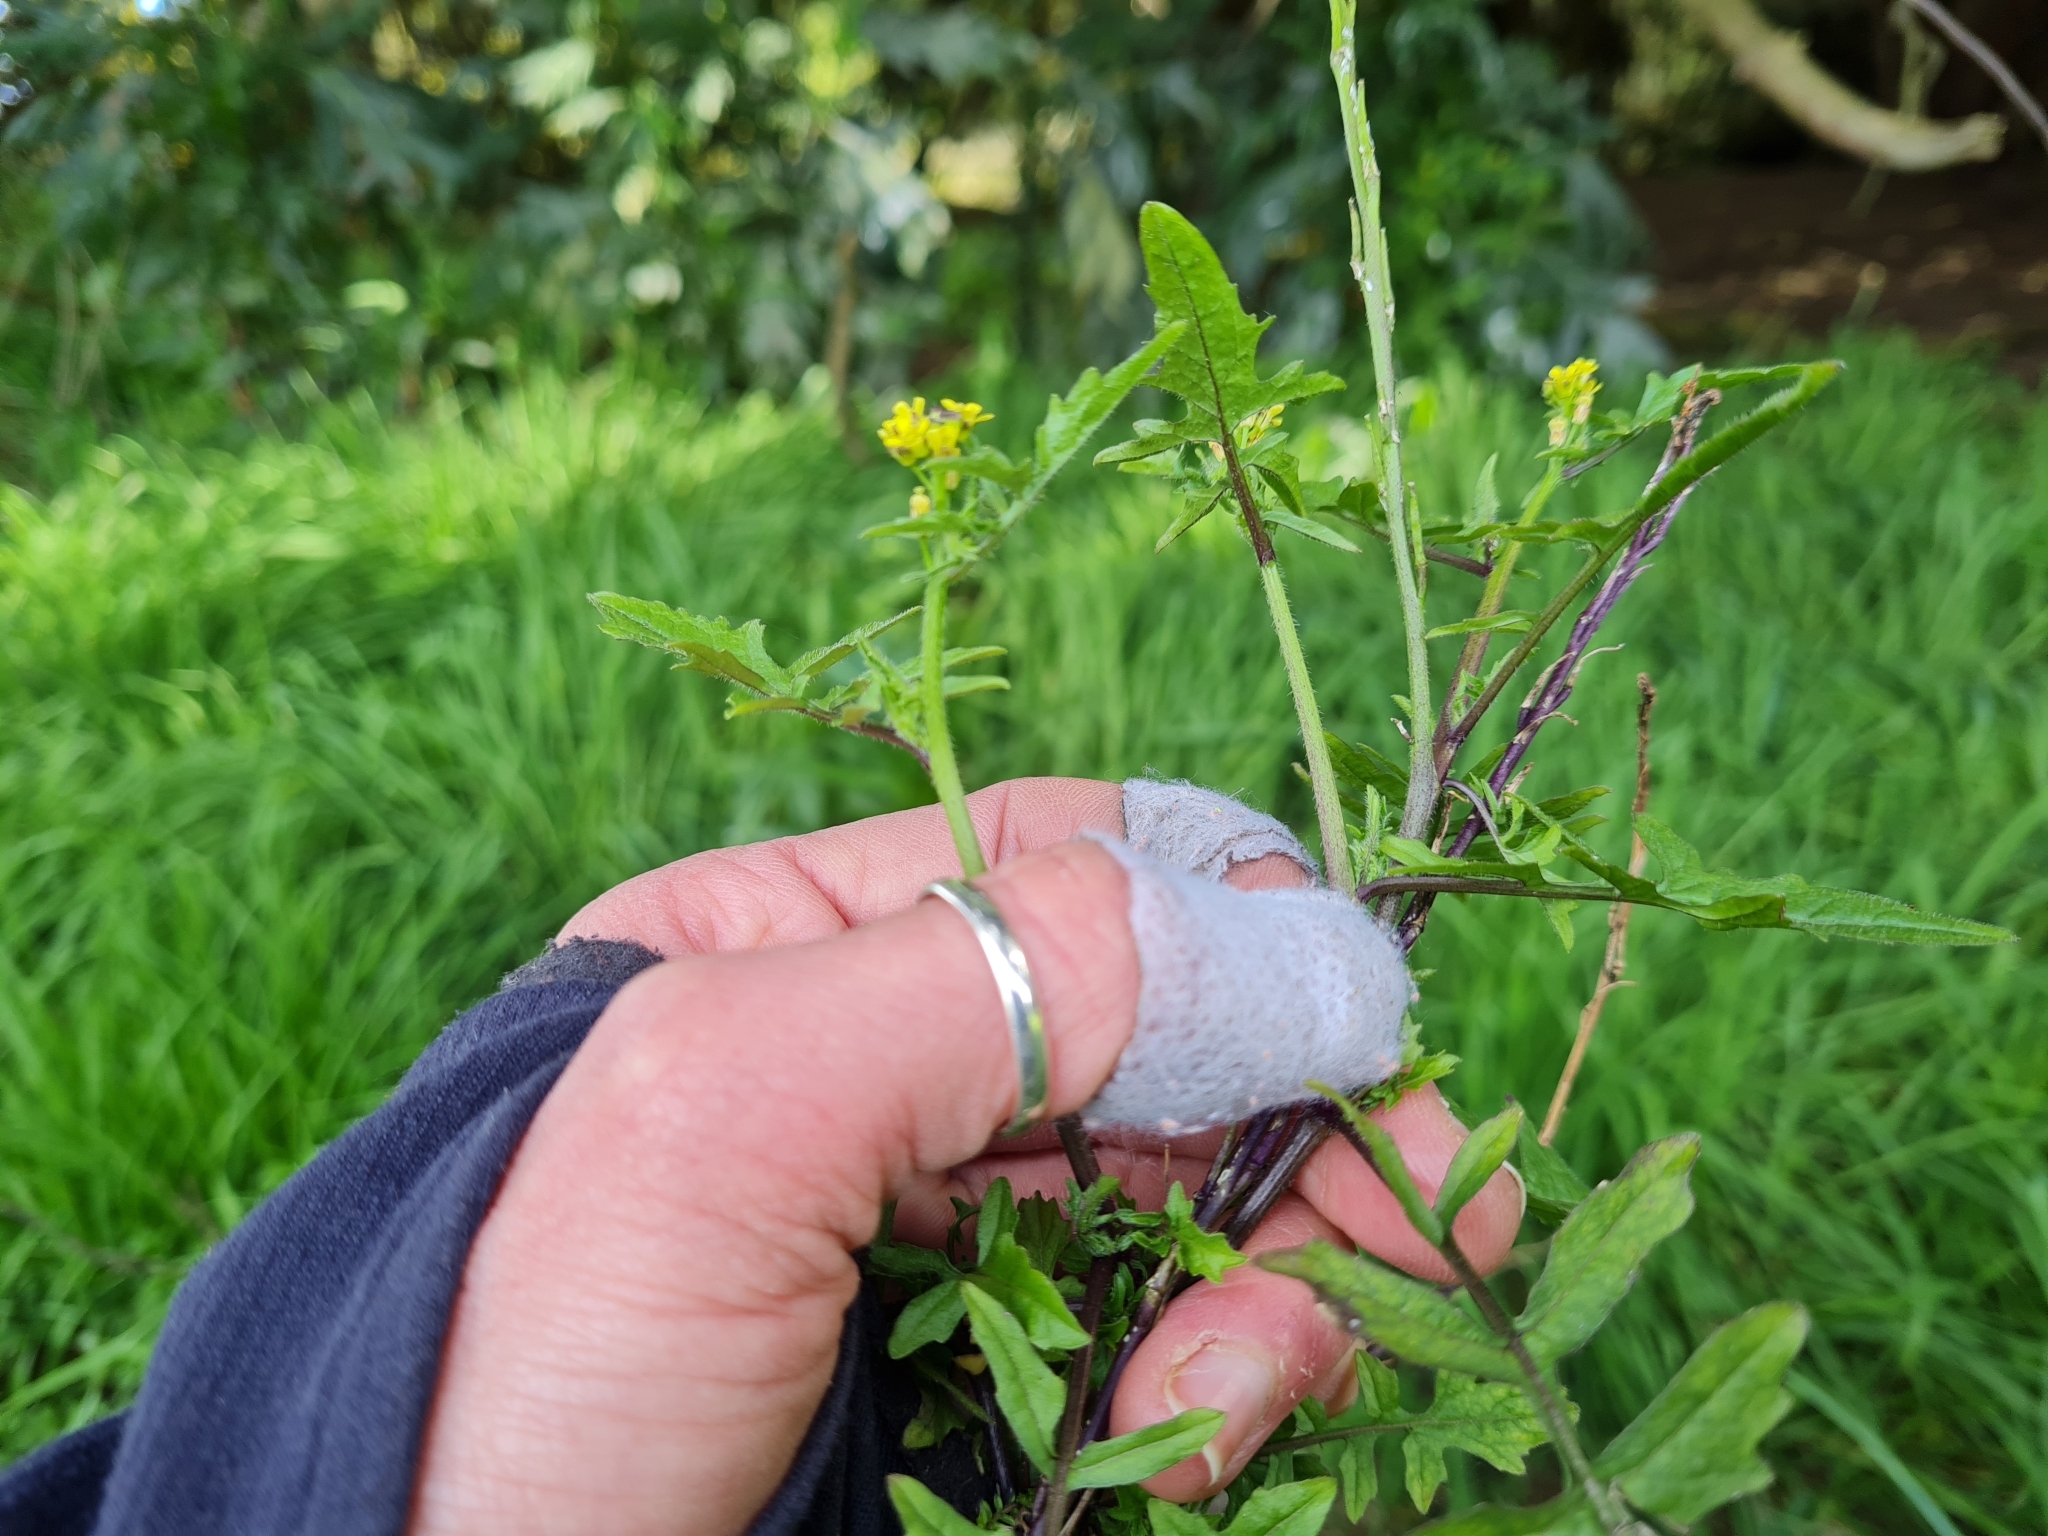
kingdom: Plantae
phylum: Tracheophyta
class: Magnoliopsida
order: Brassicales
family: Brassicaceae
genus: Sisymbrium
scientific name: Sisymbrium officinale
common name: Hedge mustard
